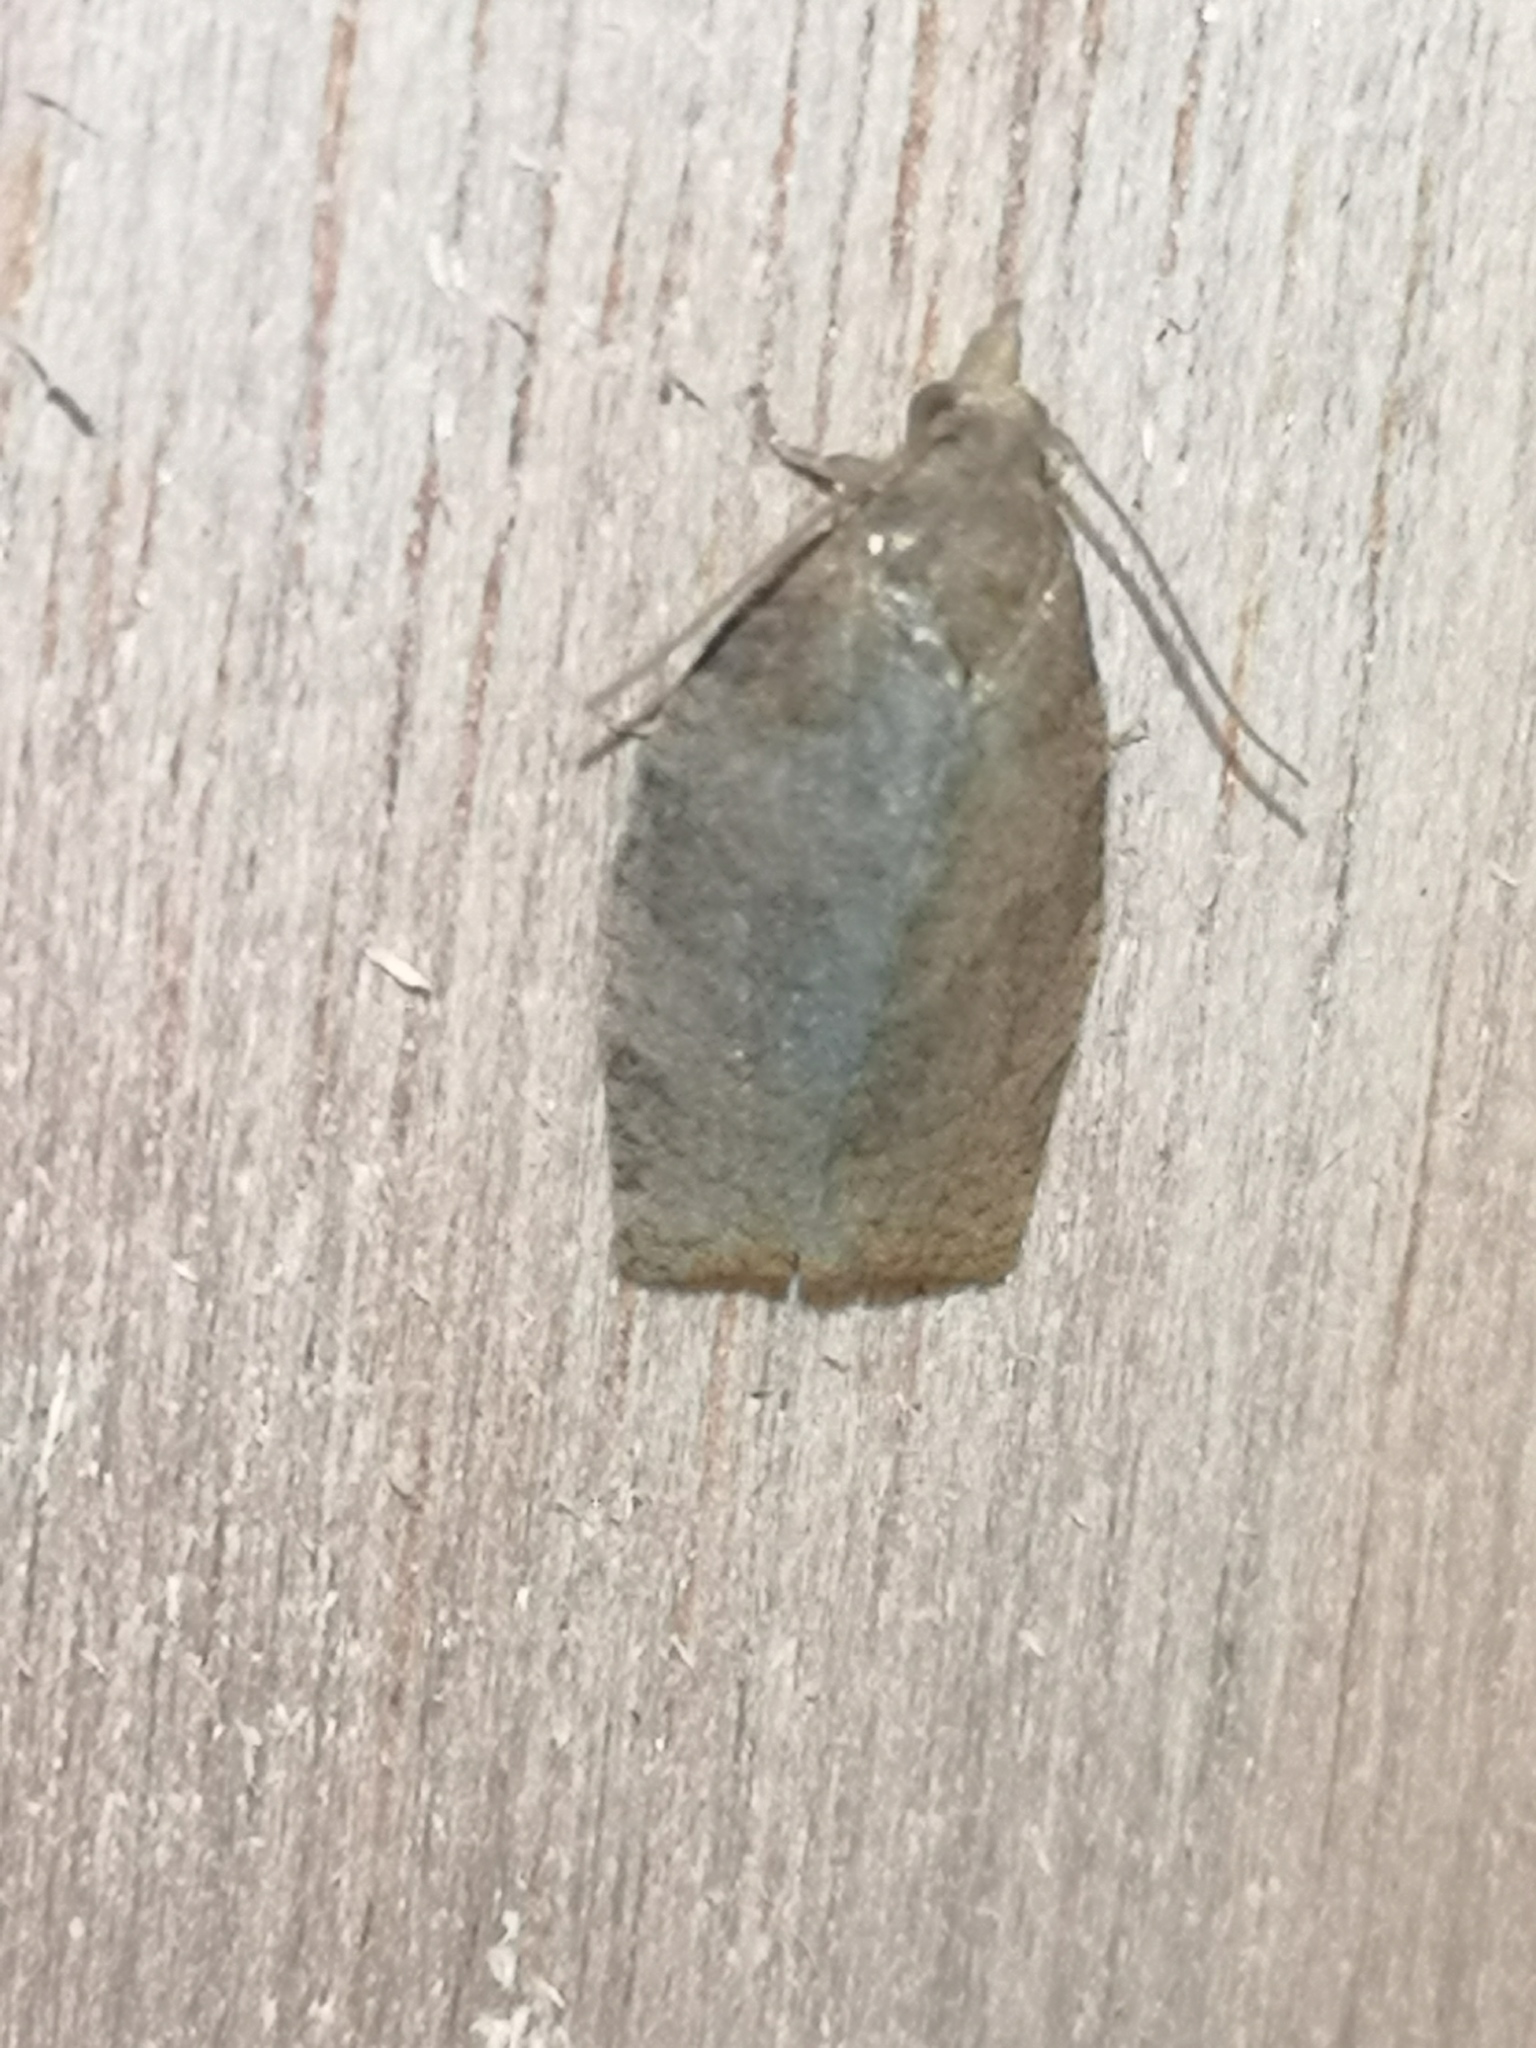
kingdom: Animalia
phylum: Arthropoda
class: Insecta
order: Lepidoptera
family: Tortricidae
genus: Pandemis
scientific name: Pandemis heparana
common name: Dark fruit-tree tortrix
